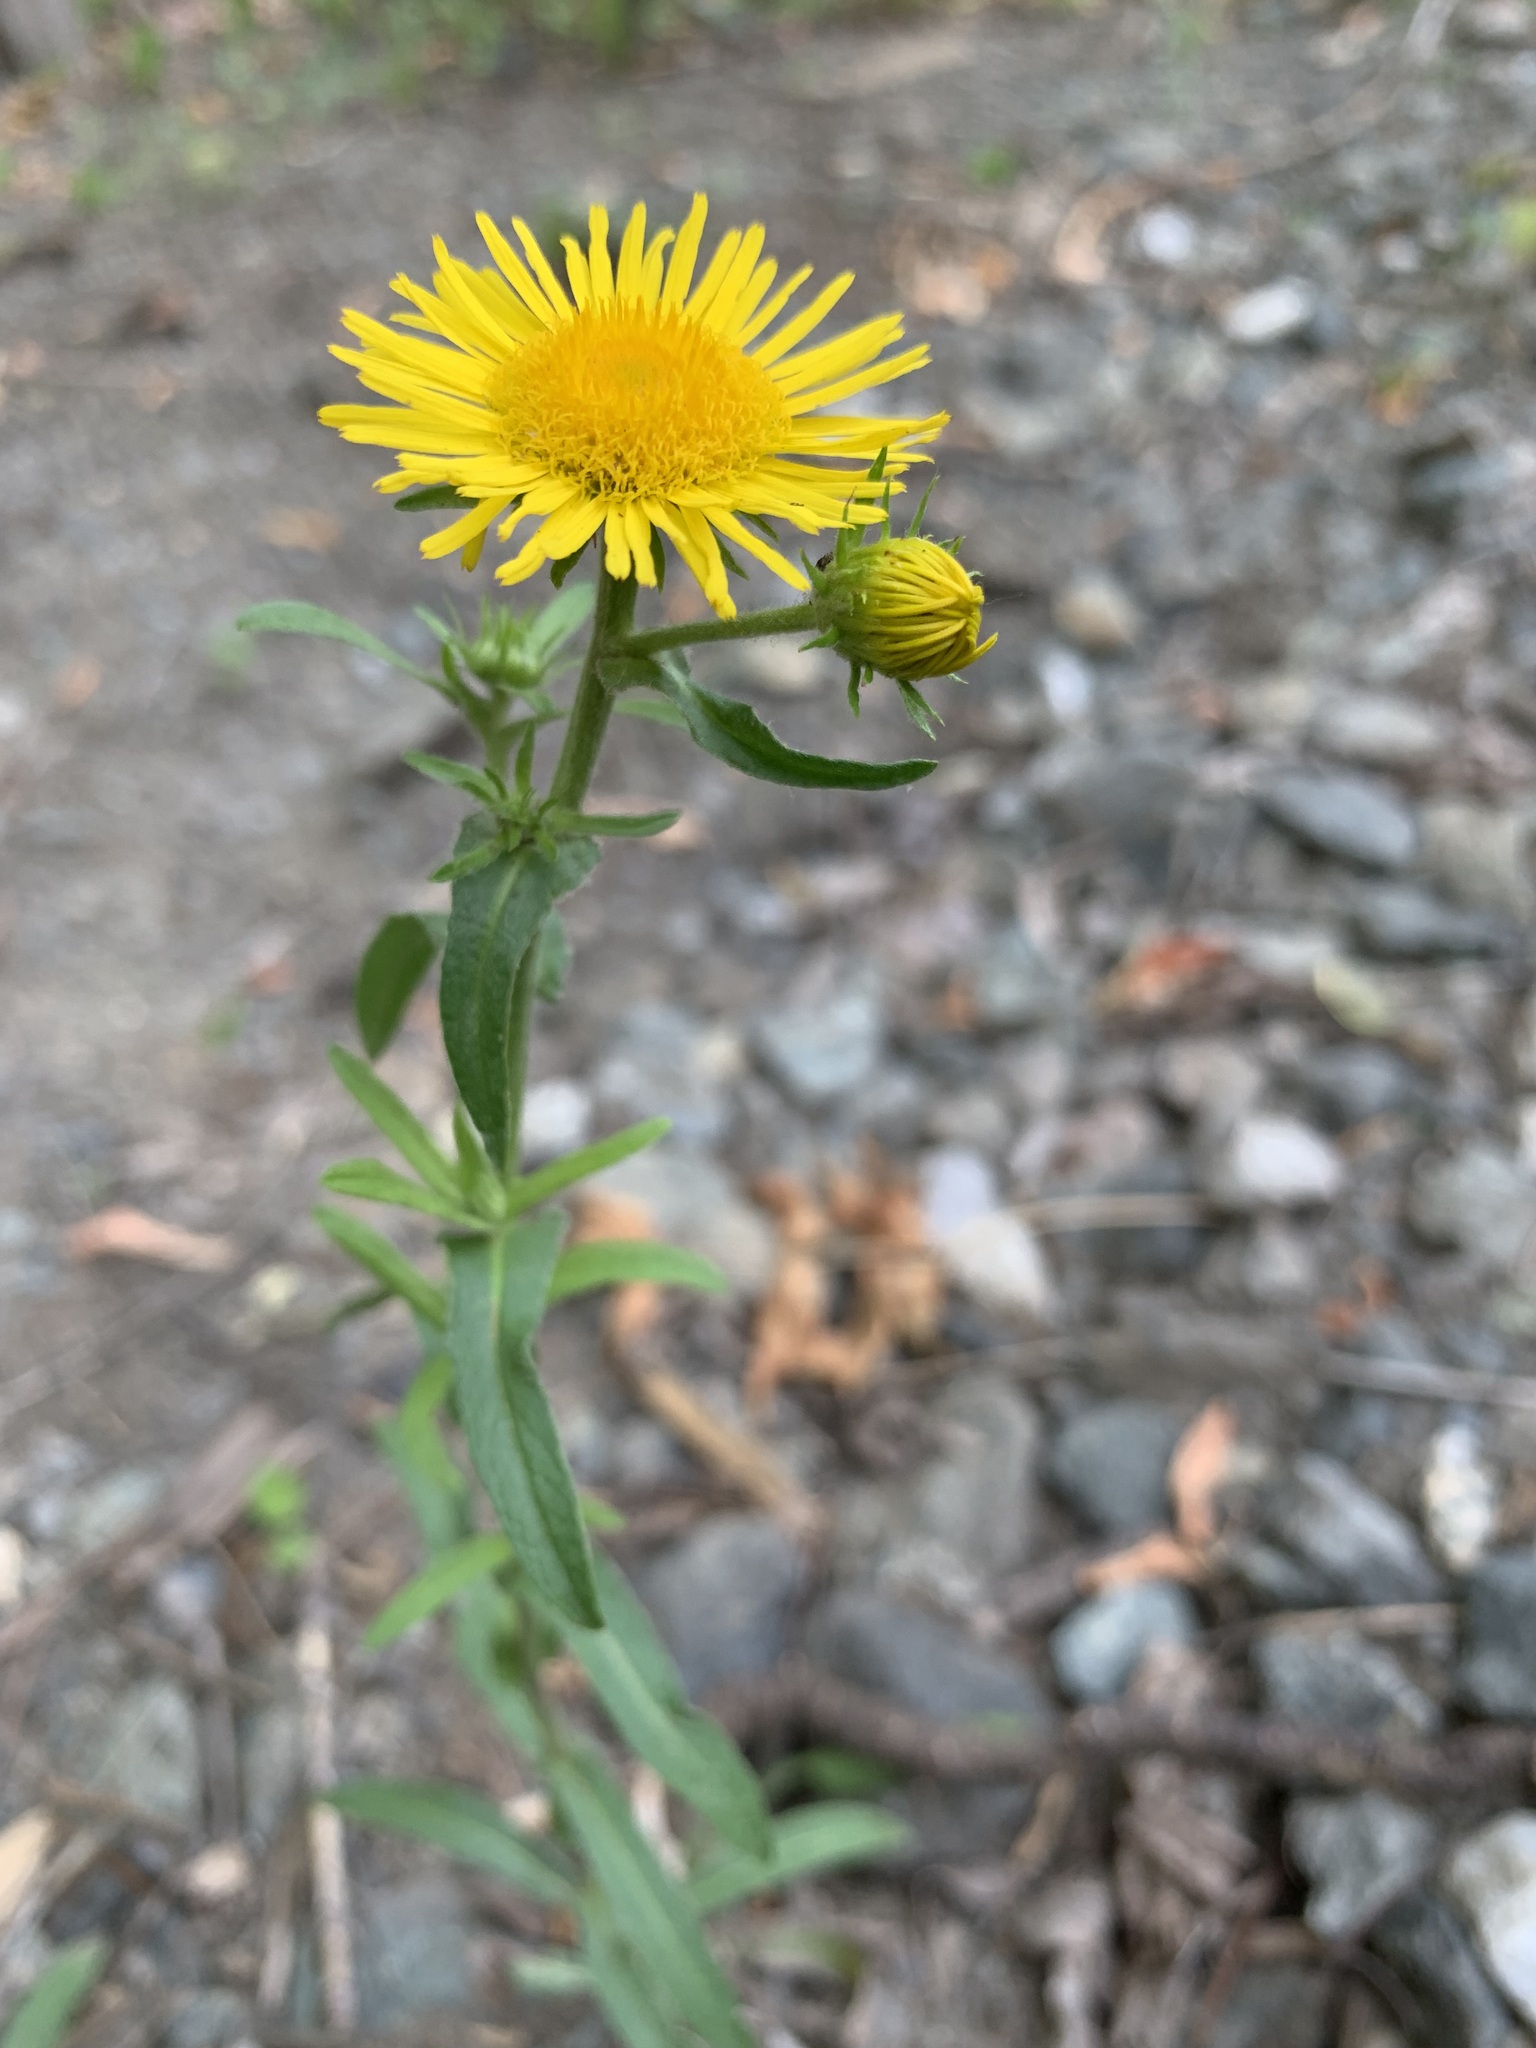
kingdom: Plantae
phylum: Tracheophyta
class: Magnoliopsida
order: Asterales
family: Asteraceae
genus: Pentanema
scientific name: Pentanema britannicum
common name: British elecampane
